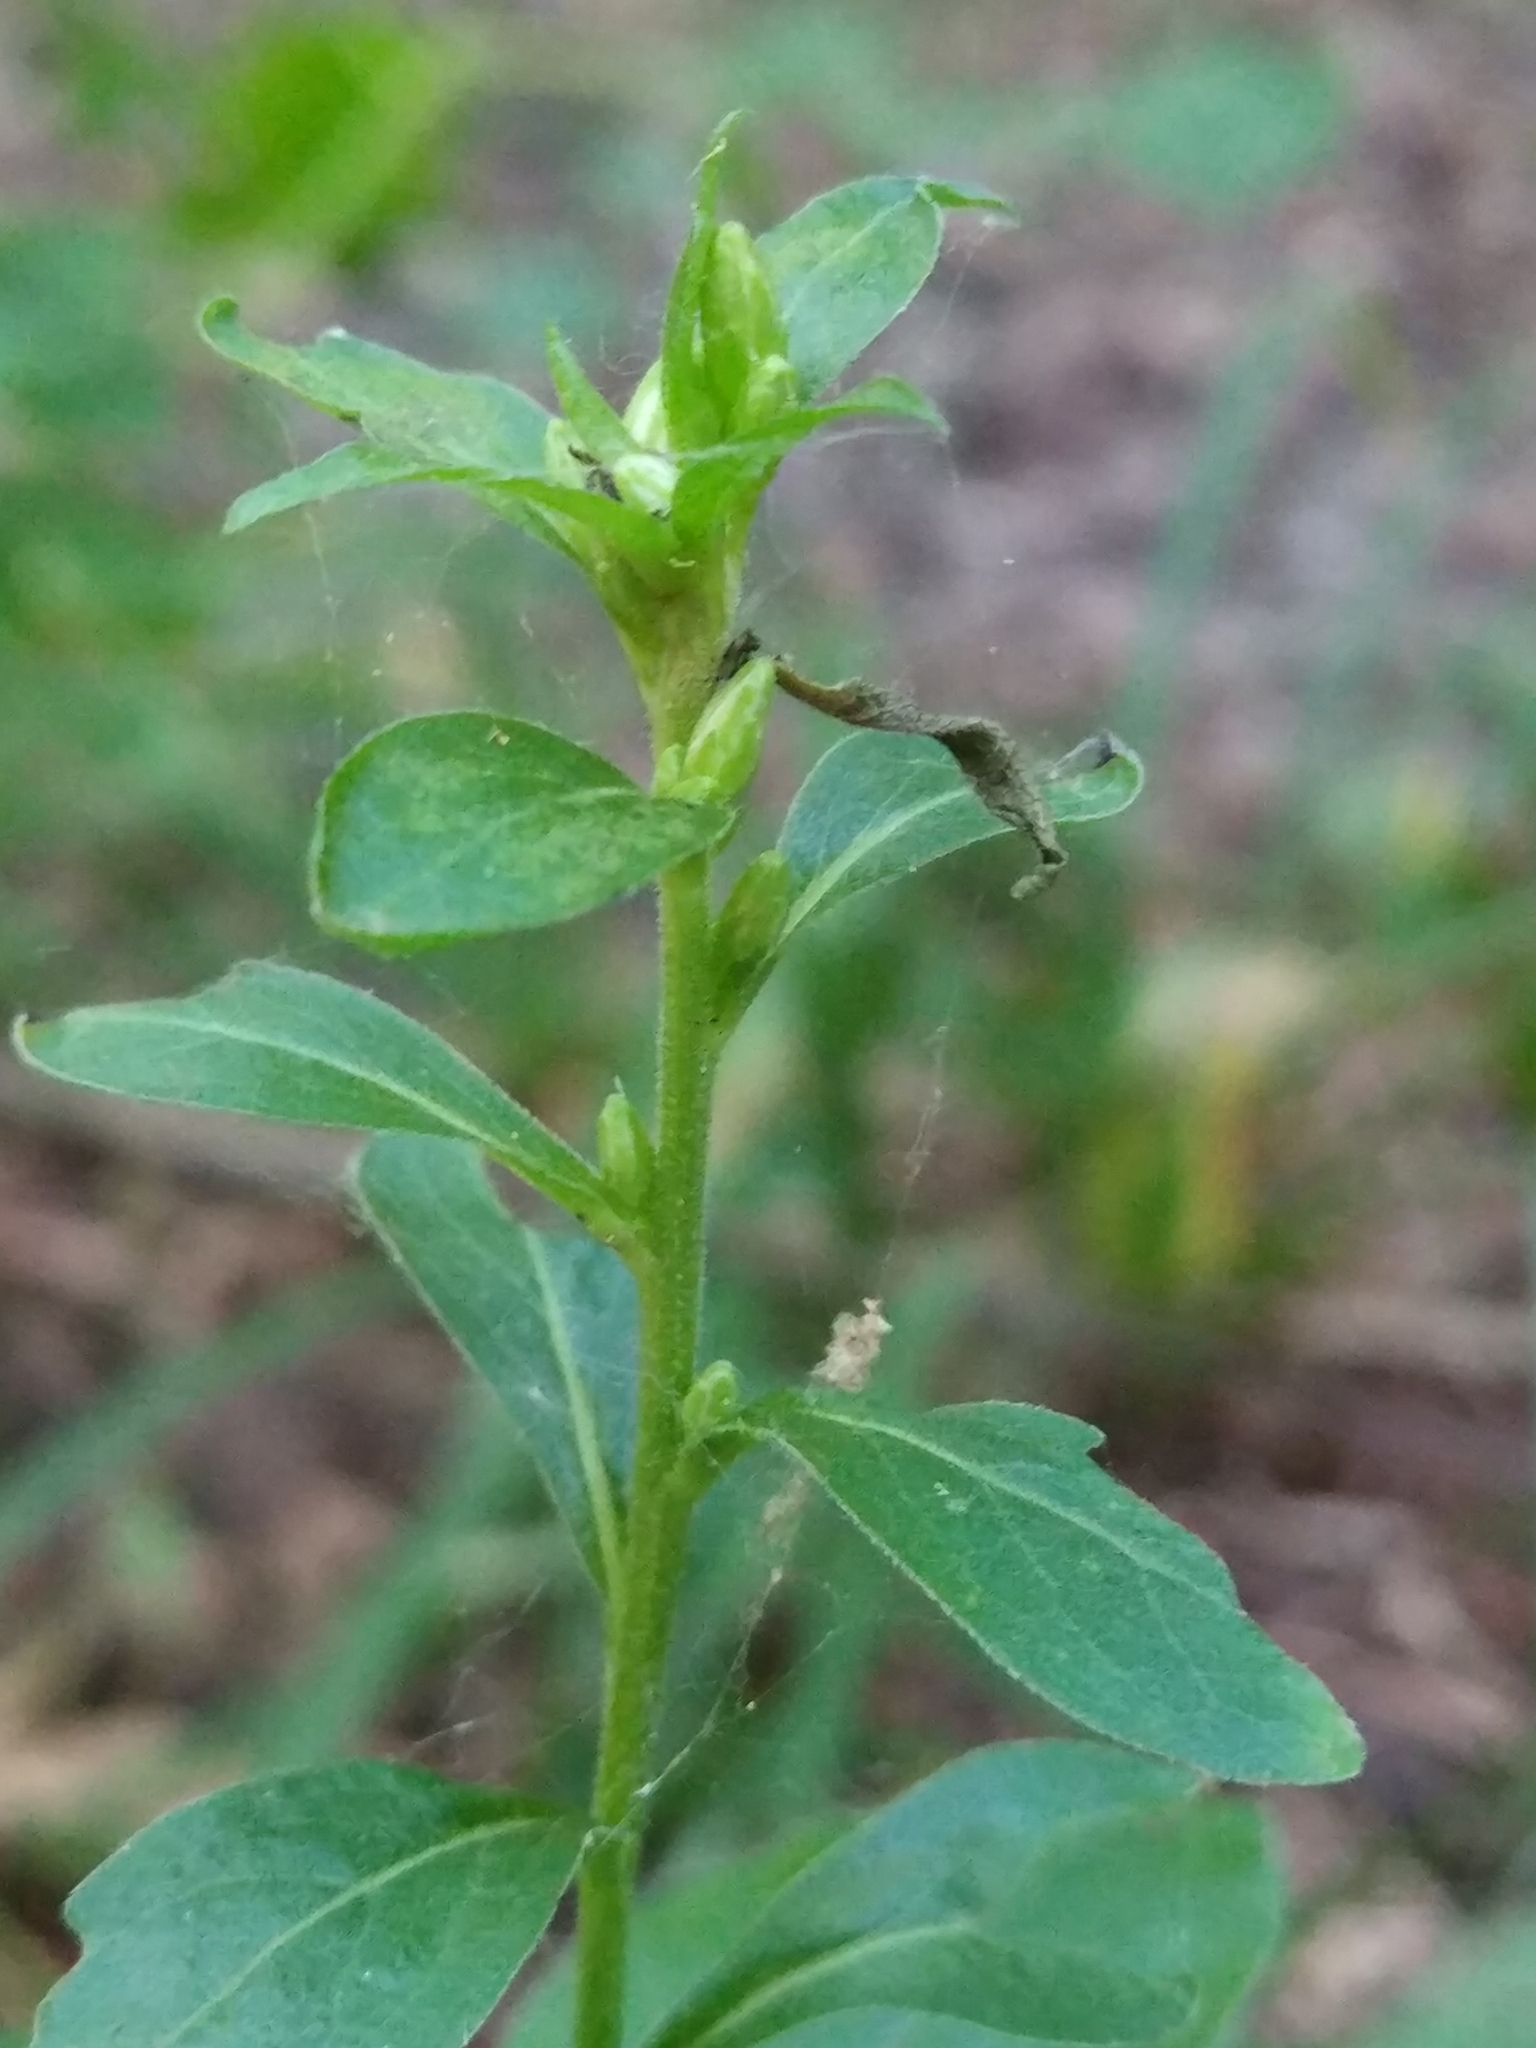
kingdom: Plantae
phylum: Tracheophyta
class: Magnoliopsida
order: Asterales
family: Asteraceae
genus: Solidago
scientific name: Solidago virgaurea
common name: Goldenrod
